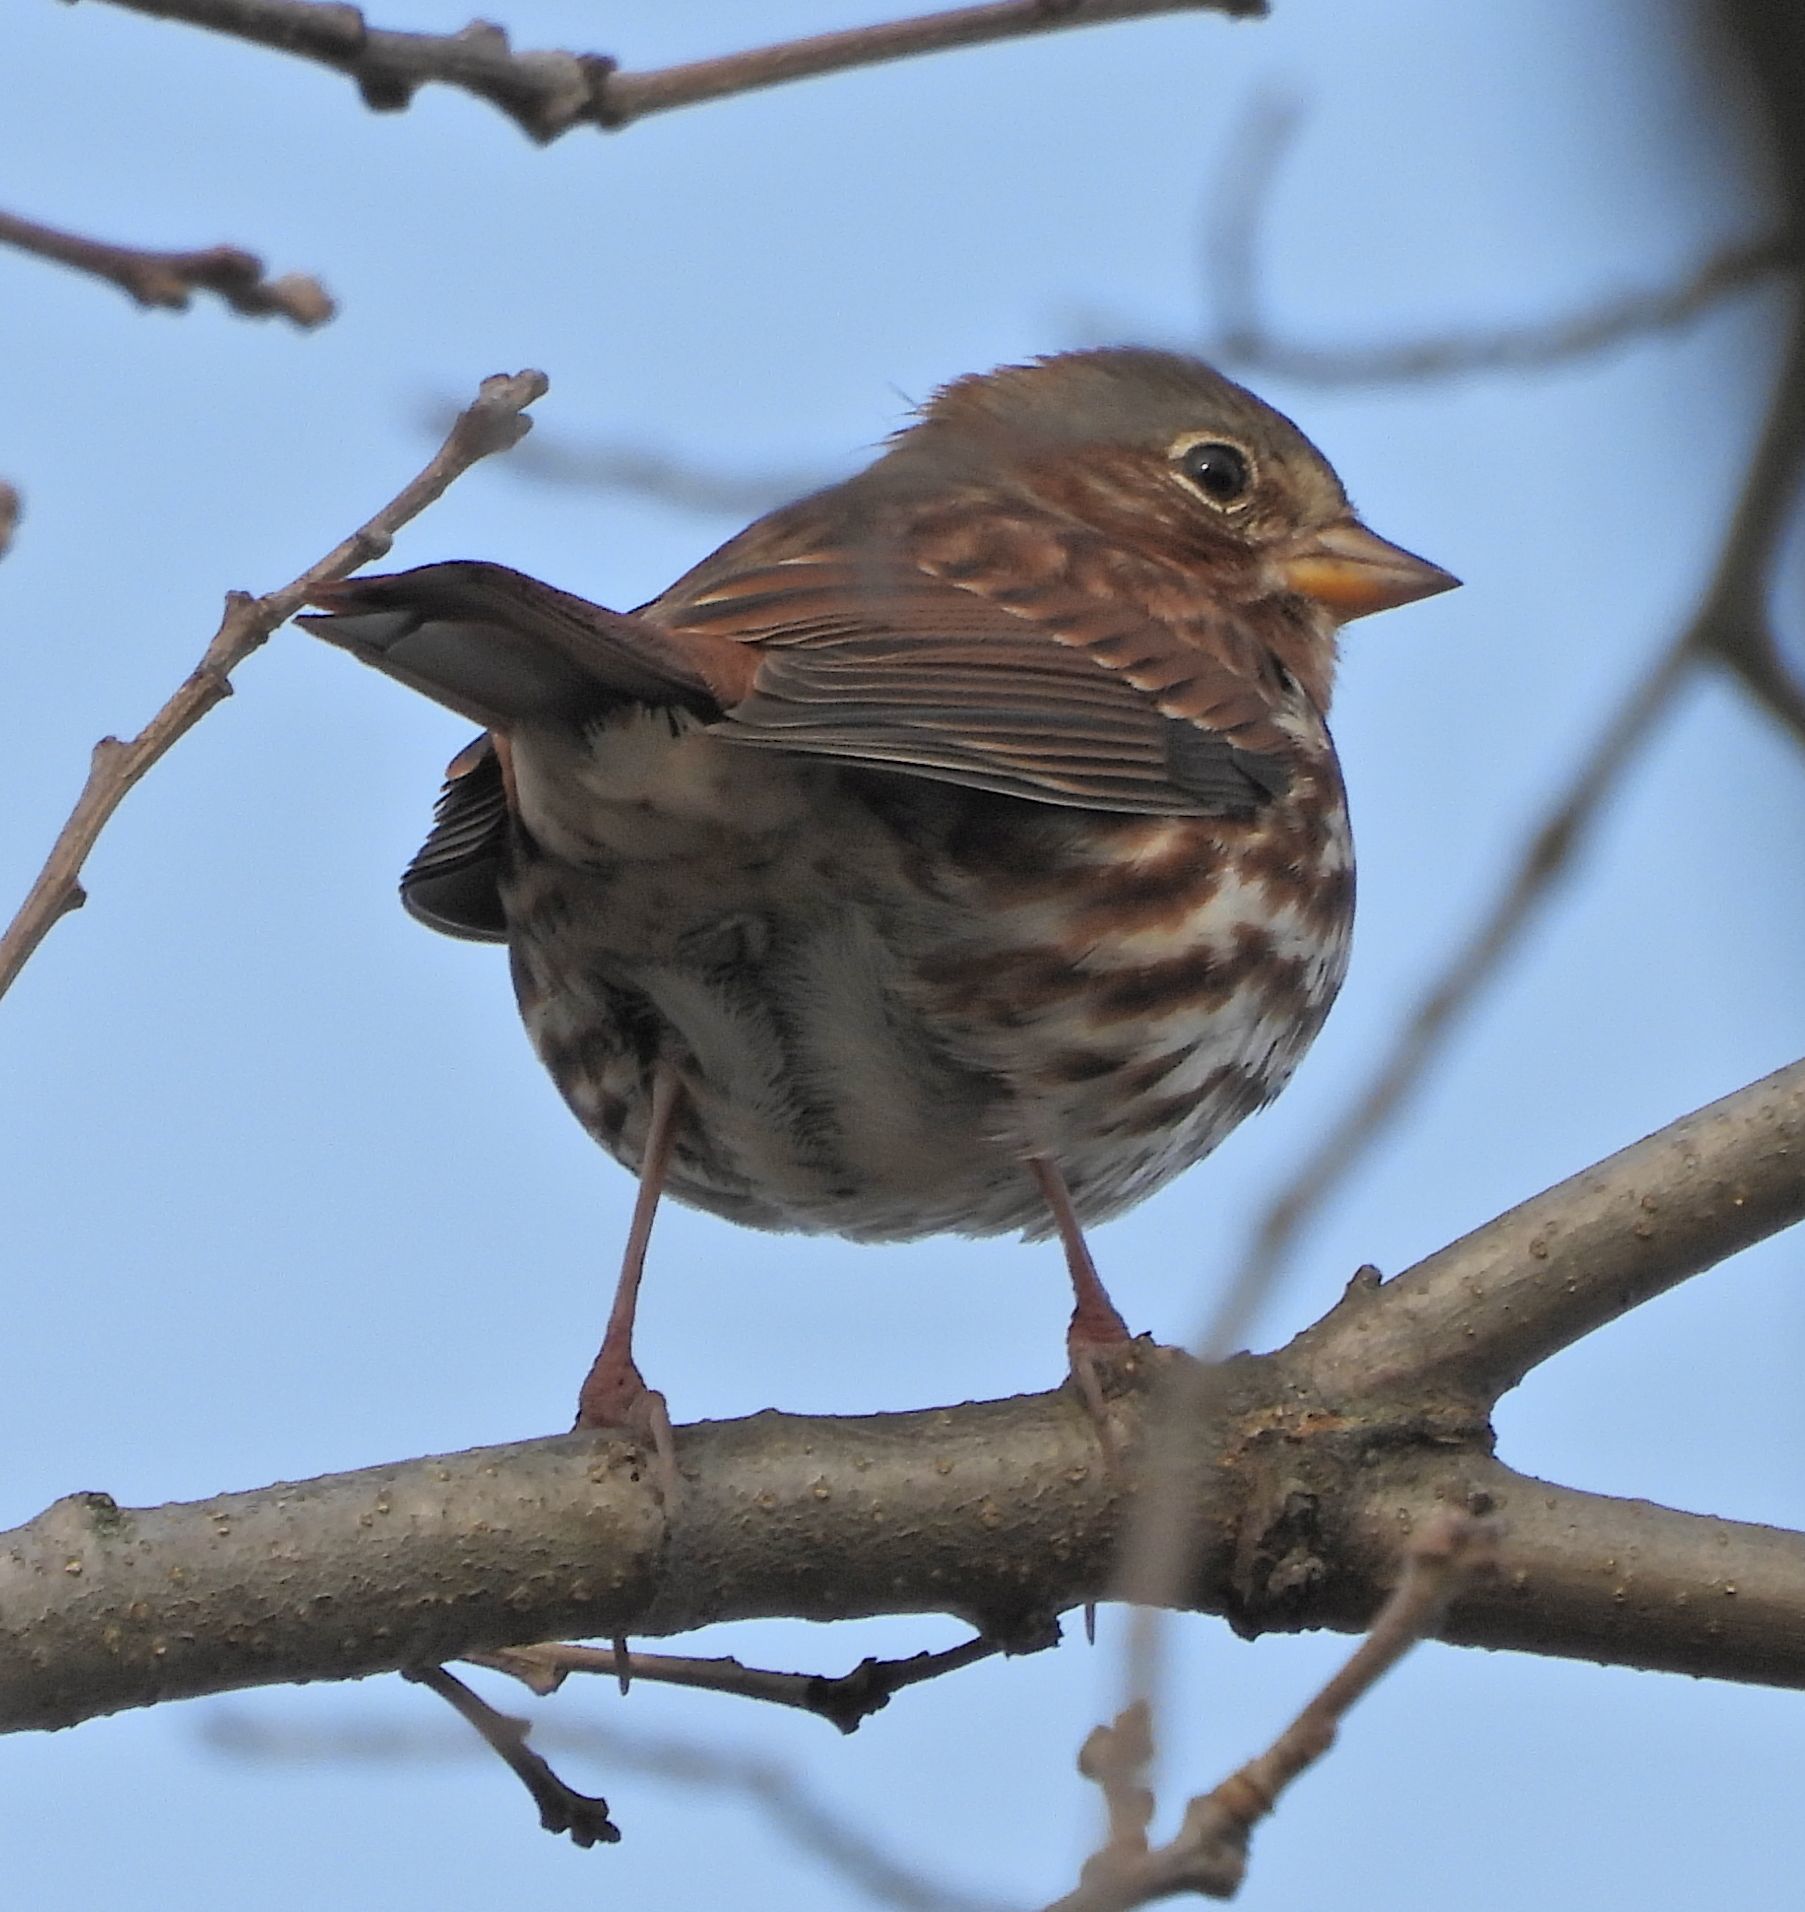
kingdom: Animalia
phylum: Chordata
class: Aves
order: Passeriformes
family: Passerellidae
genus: Passerella
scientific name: Passerella iliaca
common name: Fox sparrow
